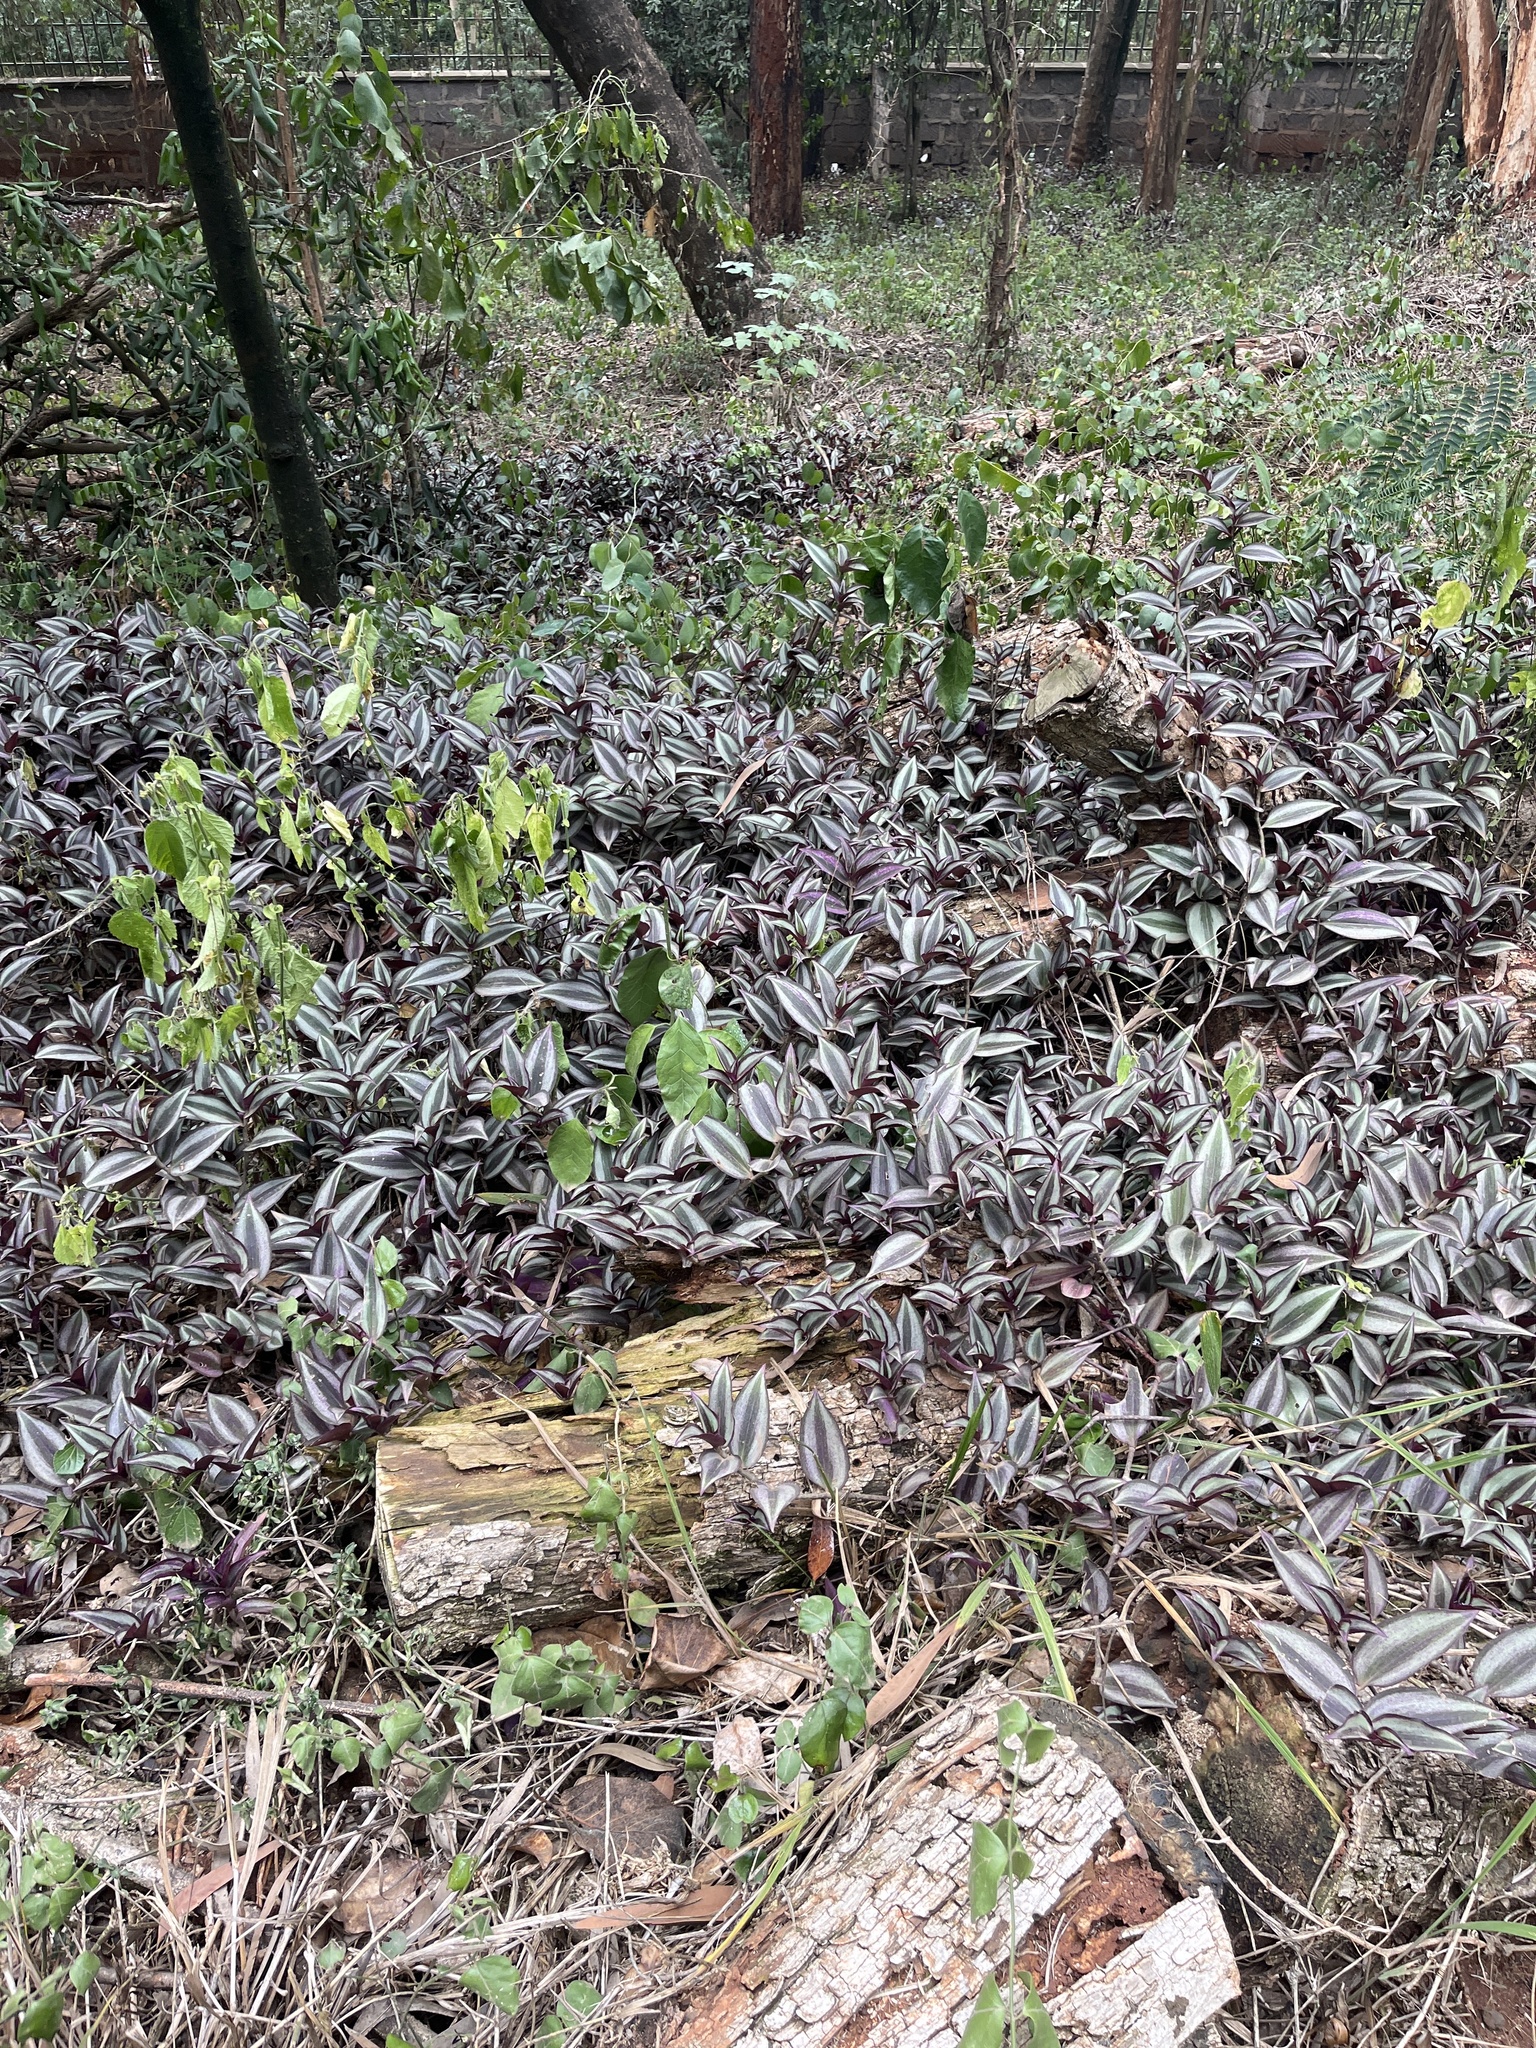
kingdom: Plantae
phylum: Tracheophyta
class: Liliopsida
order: Commelinales
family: Commelinaceae
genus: Tradescantia
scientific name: Tradescantia zebrina
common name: Inchplant
